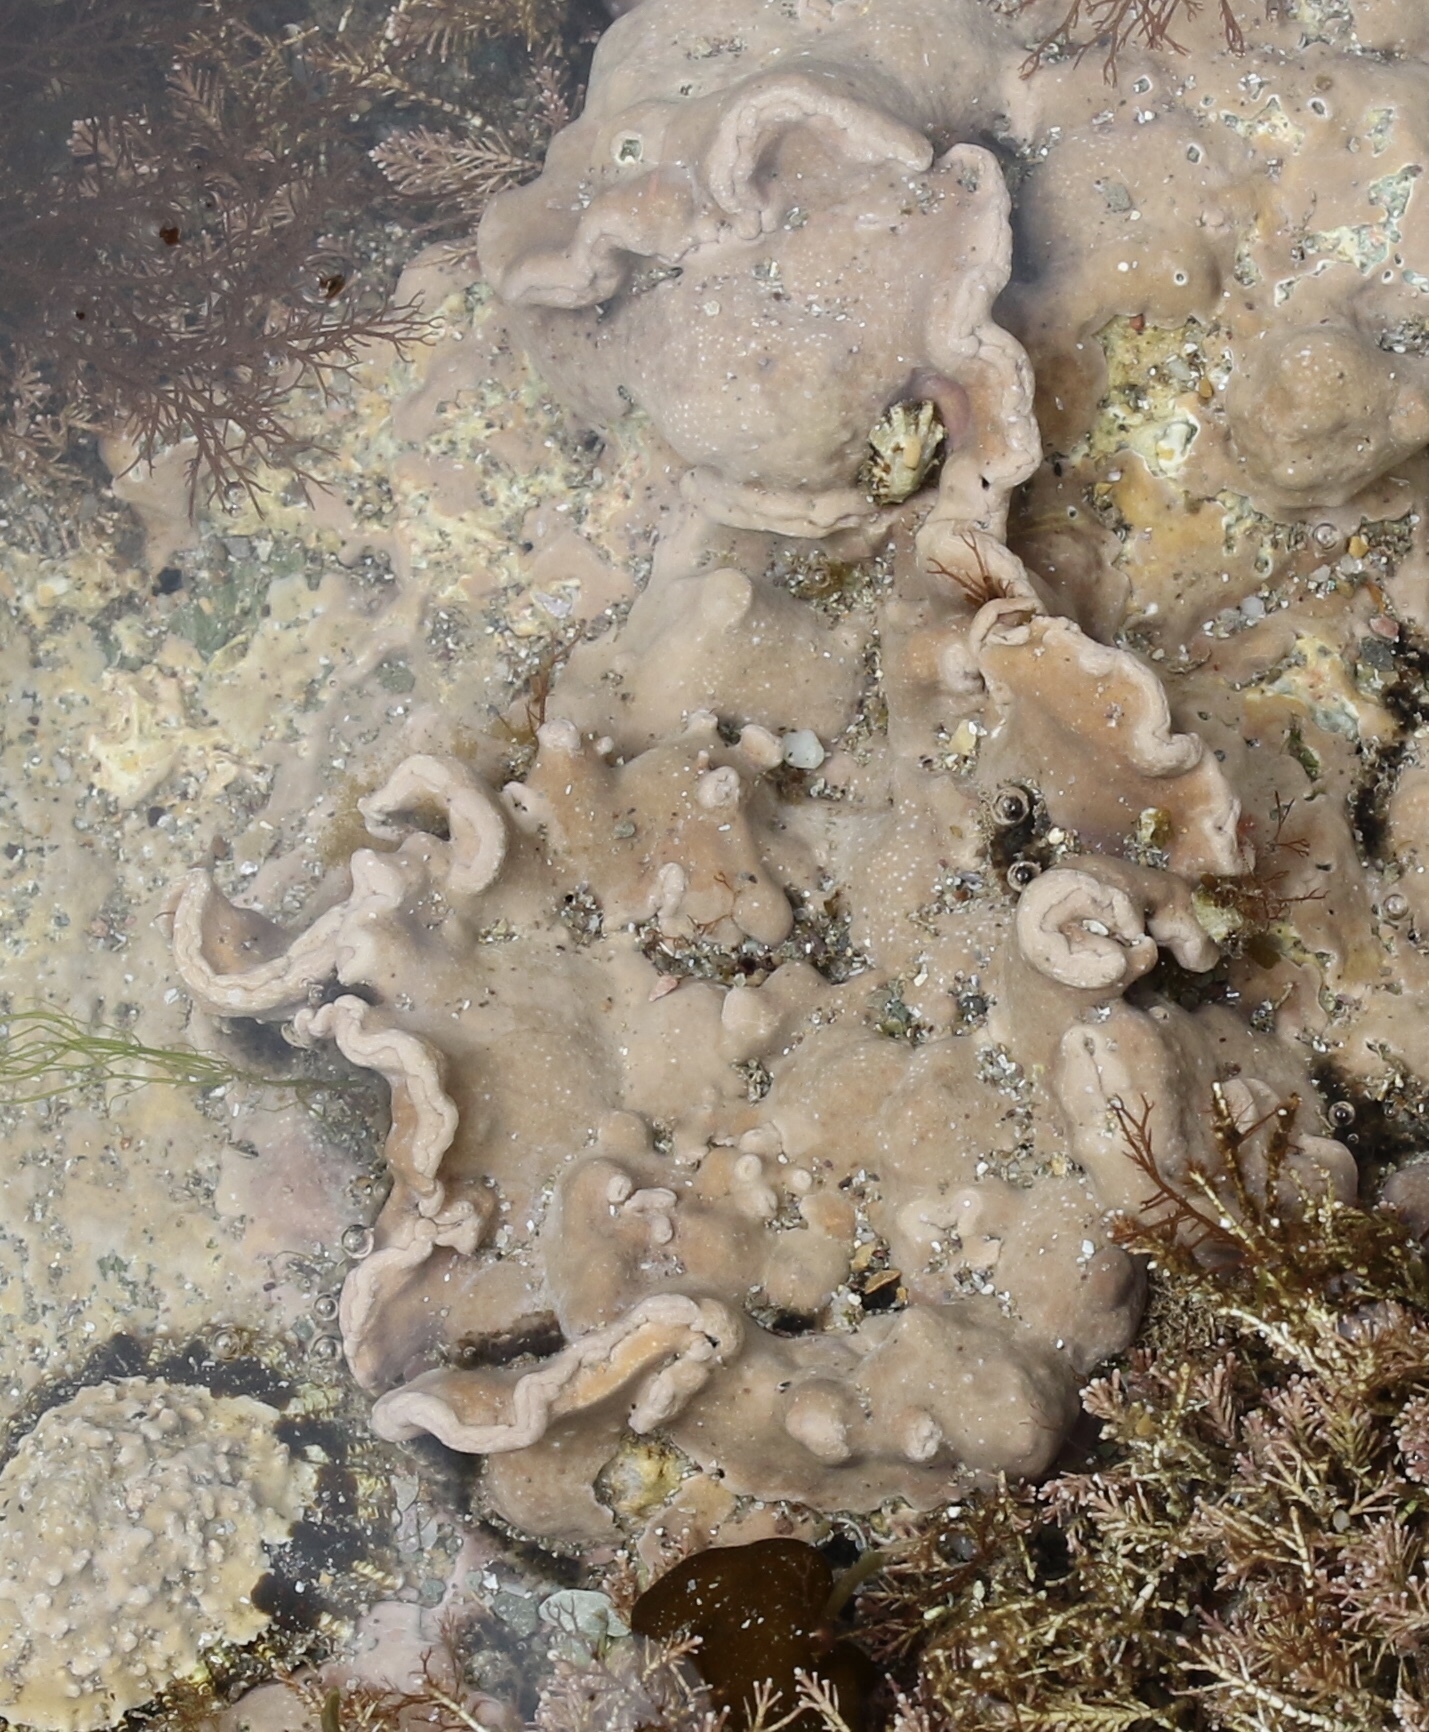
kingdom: Plantae
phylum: Rhodophyta
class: Florideophyceae
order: Corallinales
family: Lithophyllaceae
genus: Lithophyllum
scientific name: Lithophyllum incrustans
